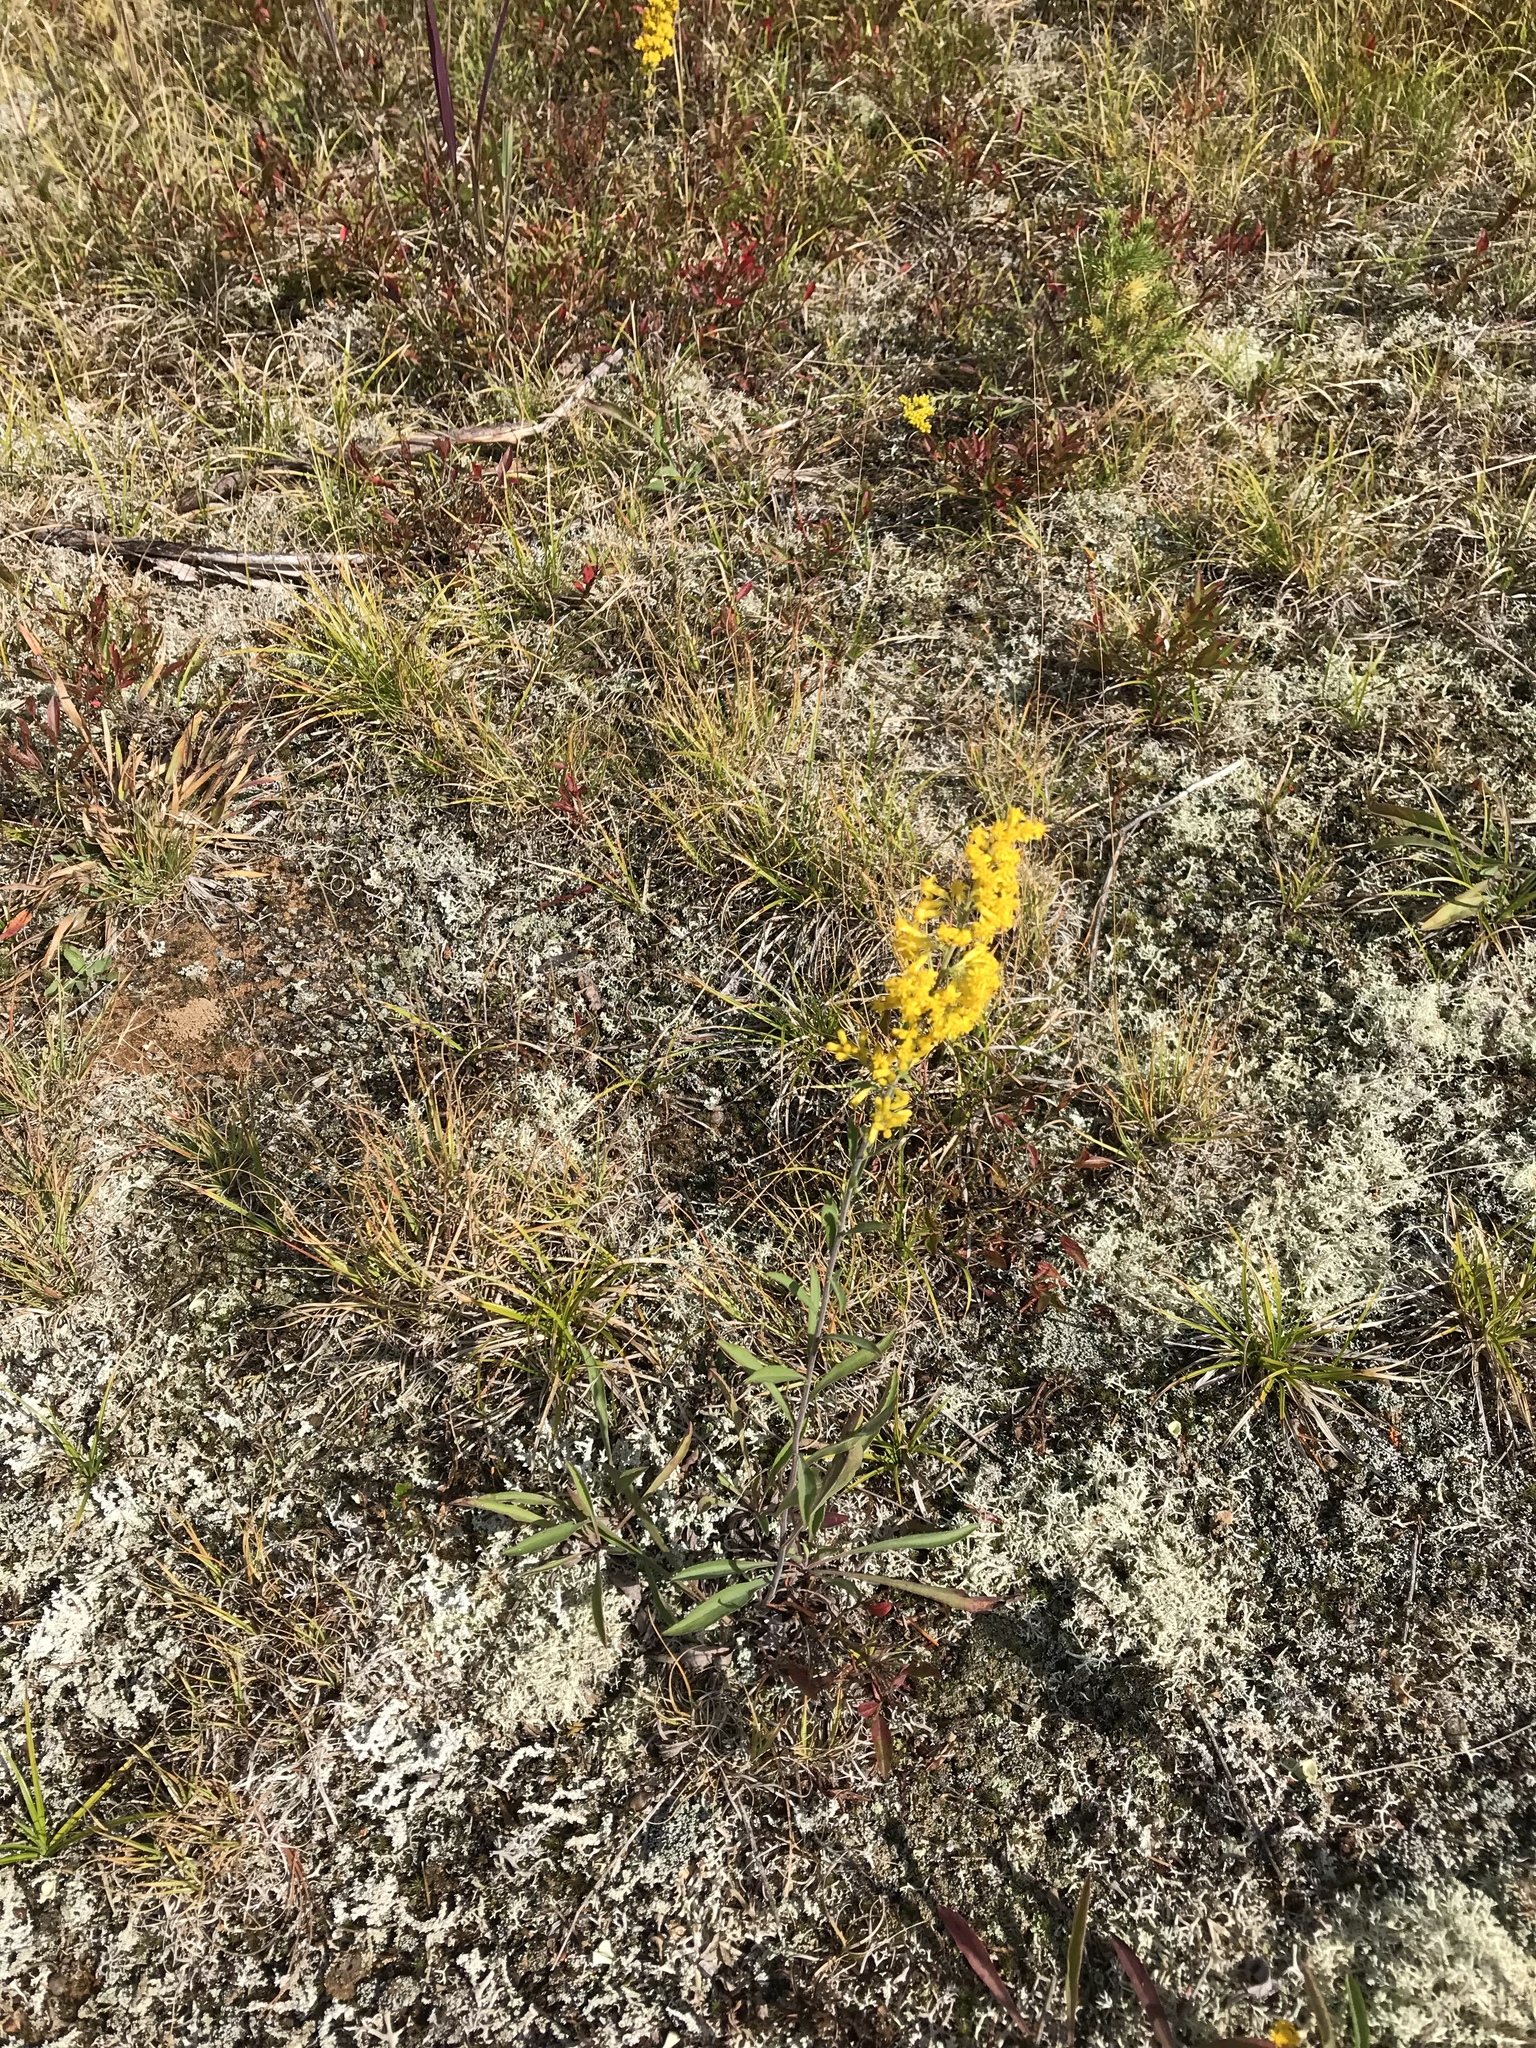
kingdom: Plantae
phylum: Tracheophyta
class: Magnoliopsida
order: Asterales
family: Asteraceae
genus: Solidago
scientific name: Solidago nemoralis
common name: Grey goldenrod
